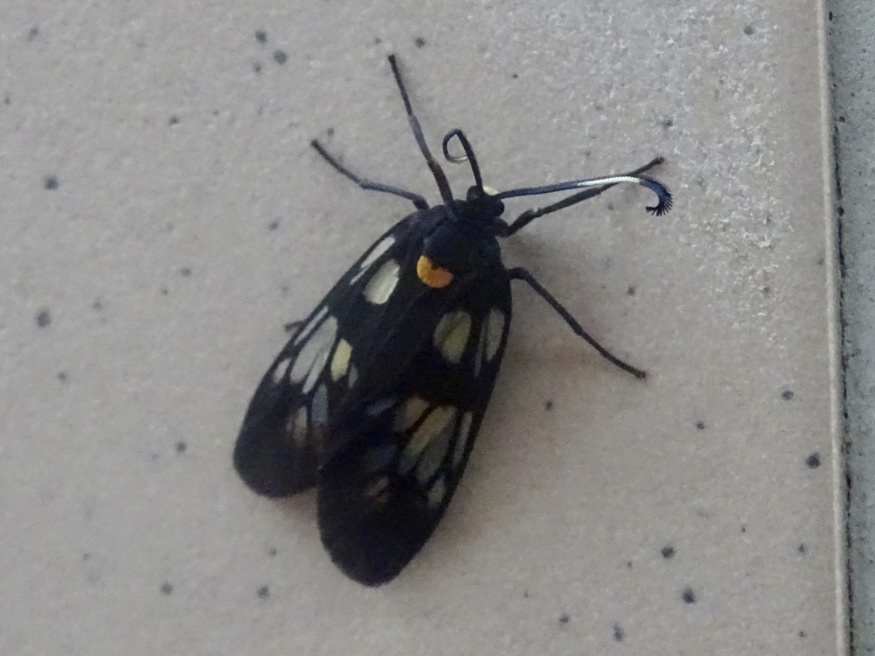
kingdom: Animalia
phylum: Arthropoda
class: Insecta
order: Lepidoptera
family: Zygaenidae
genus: Trypanophora
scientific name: Trypanophora semihyalina
